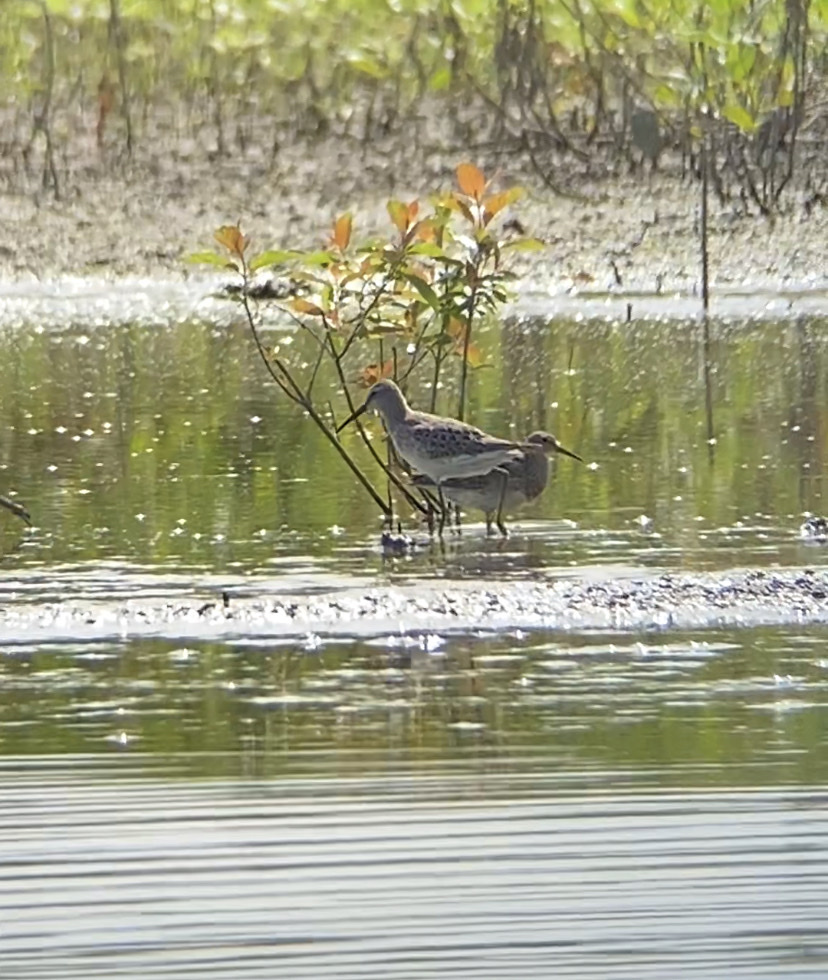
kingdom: Animalia
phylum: Chordata
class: Aves
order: Charadriiformes
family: Scolopacidae
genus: Calidris
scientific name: Calidris himantopus
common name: Stilt sandpiper
